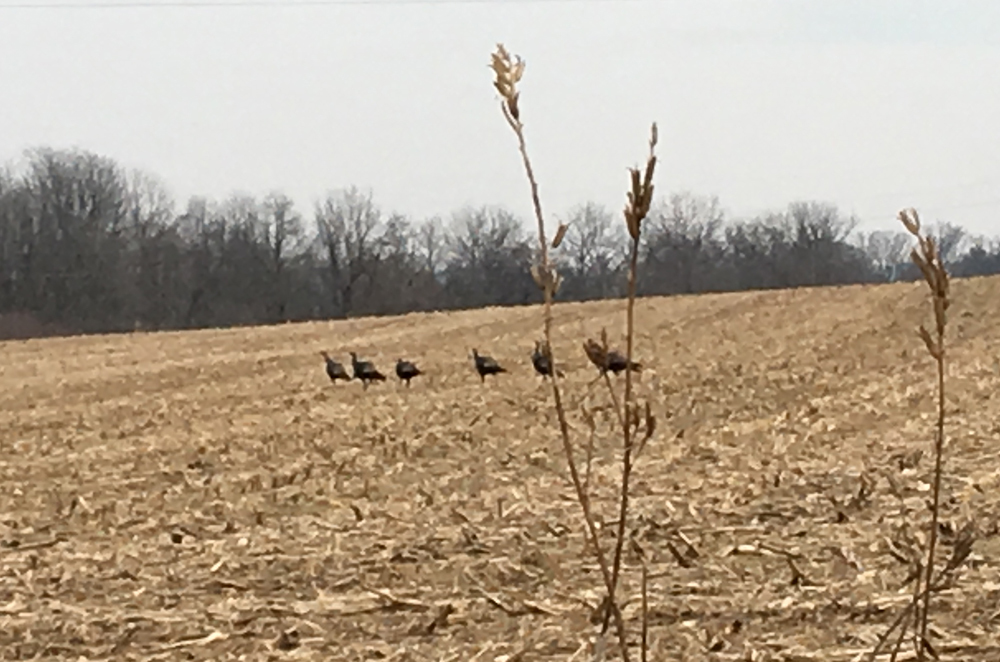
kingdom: Animalia
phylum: Chordata
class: Aves
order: Galliformes
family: Phasianidae
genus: Meleagris
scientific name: Meleagris gallopavo
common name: Wild turkey
